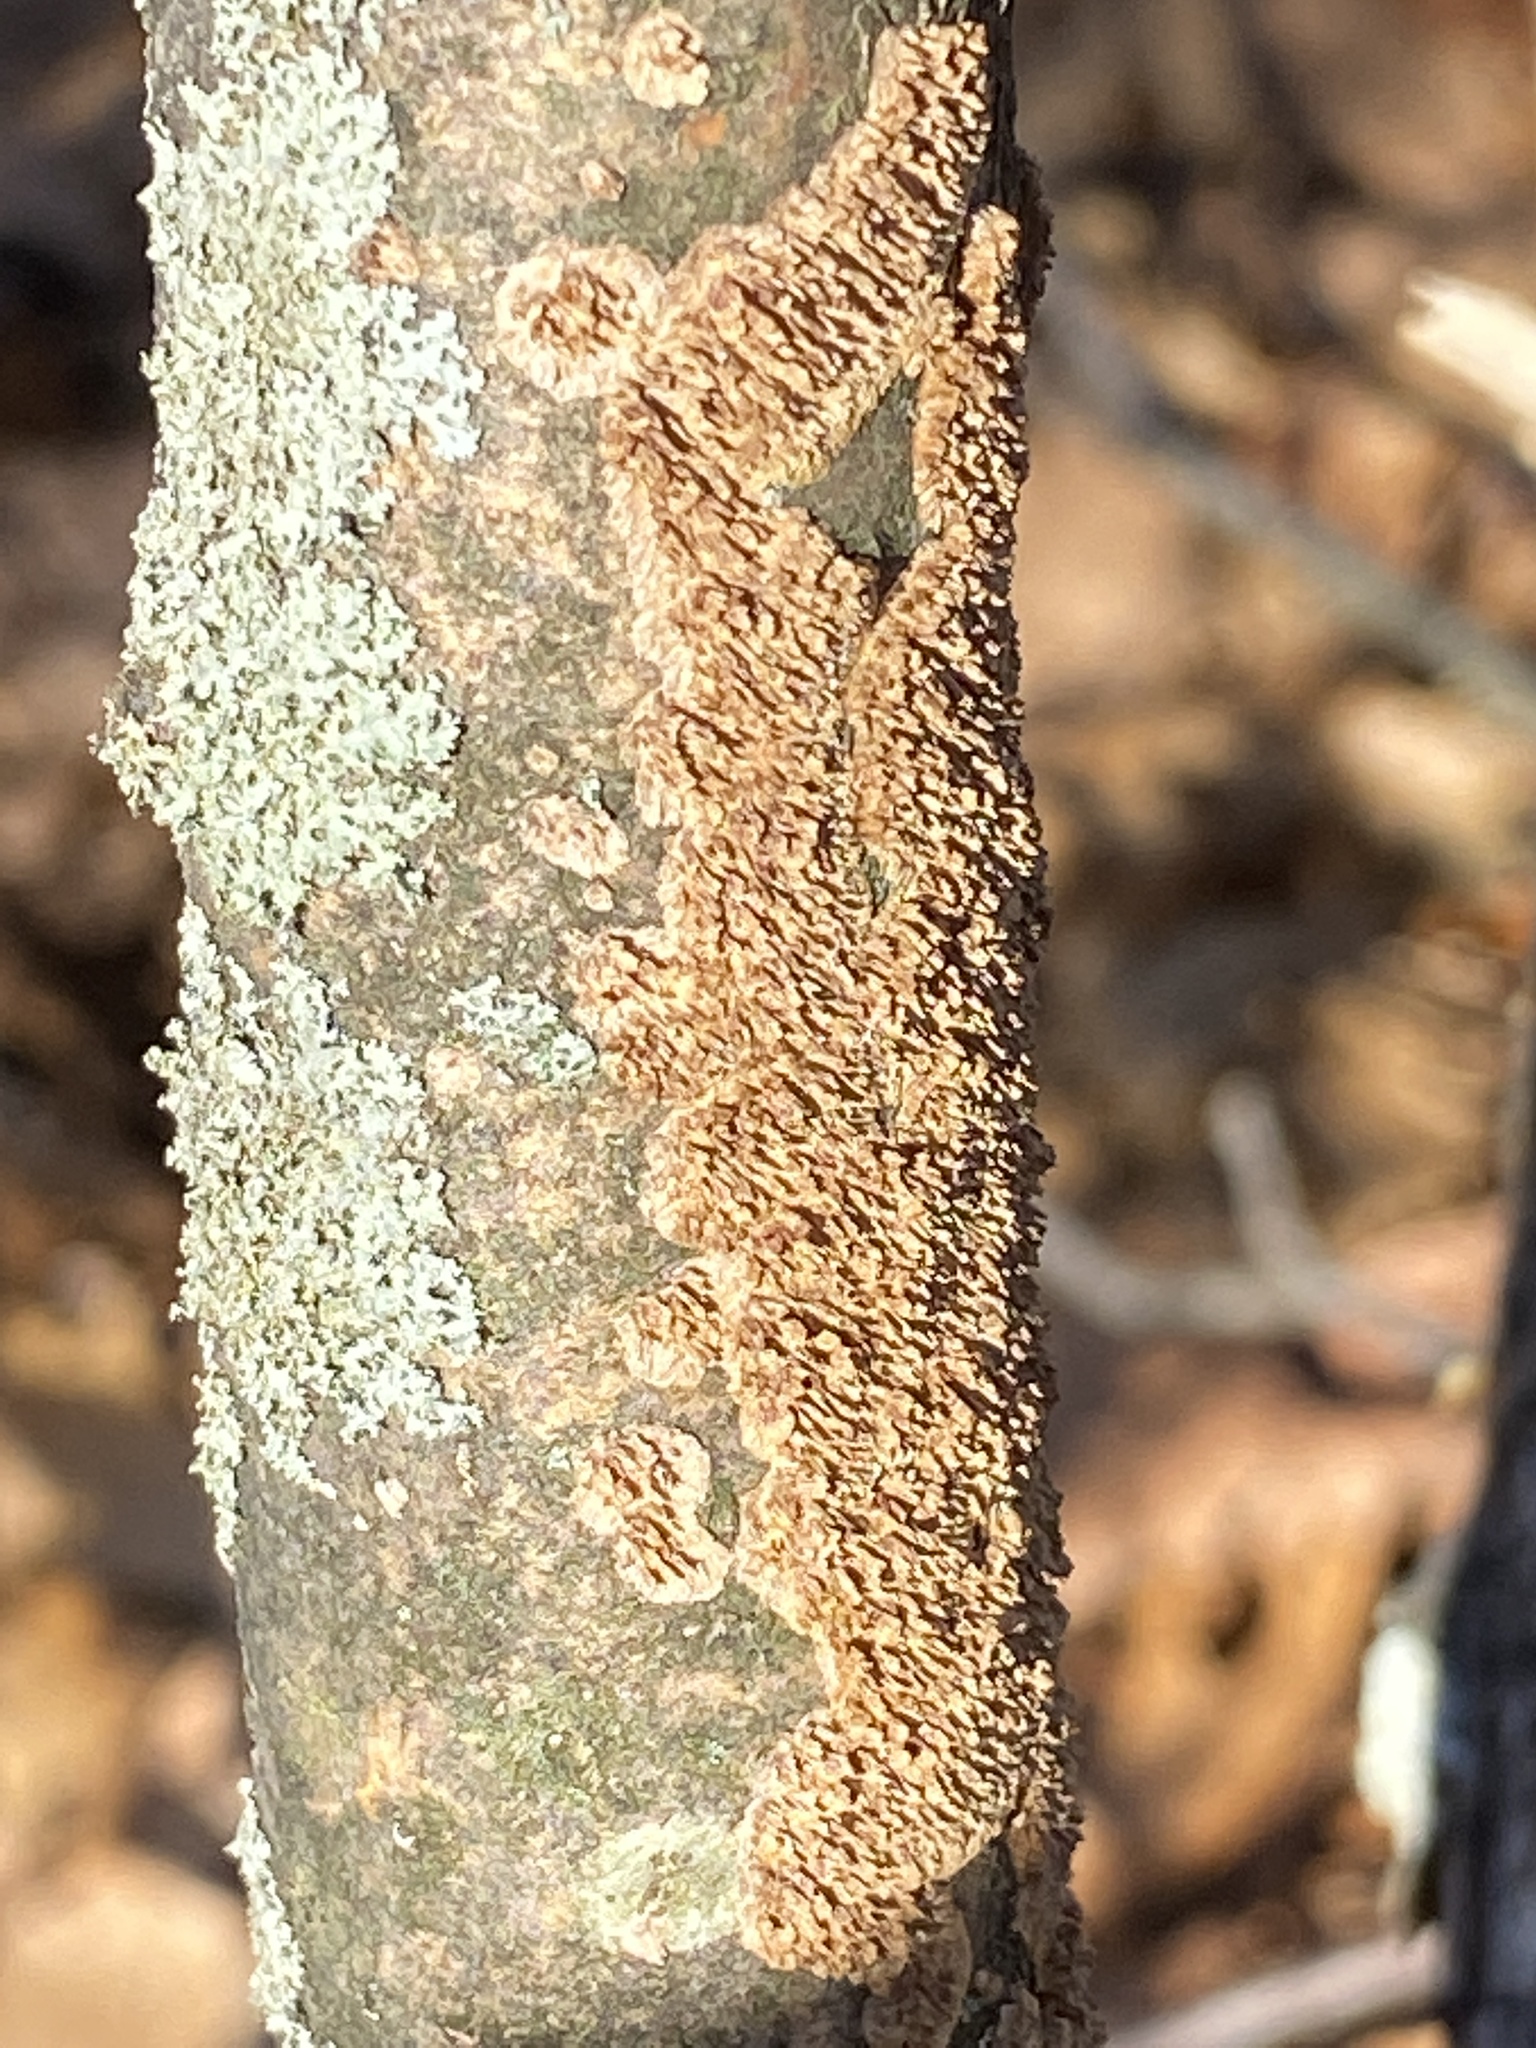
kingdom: Fungi
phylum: Basidiomycota
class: Agaricomycetes
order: Hymenochaetales
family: Hymenochaetaceae
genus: Hydnoporia
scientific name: Hydnoporia olivacea
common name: Brown-toothed crust fungus
